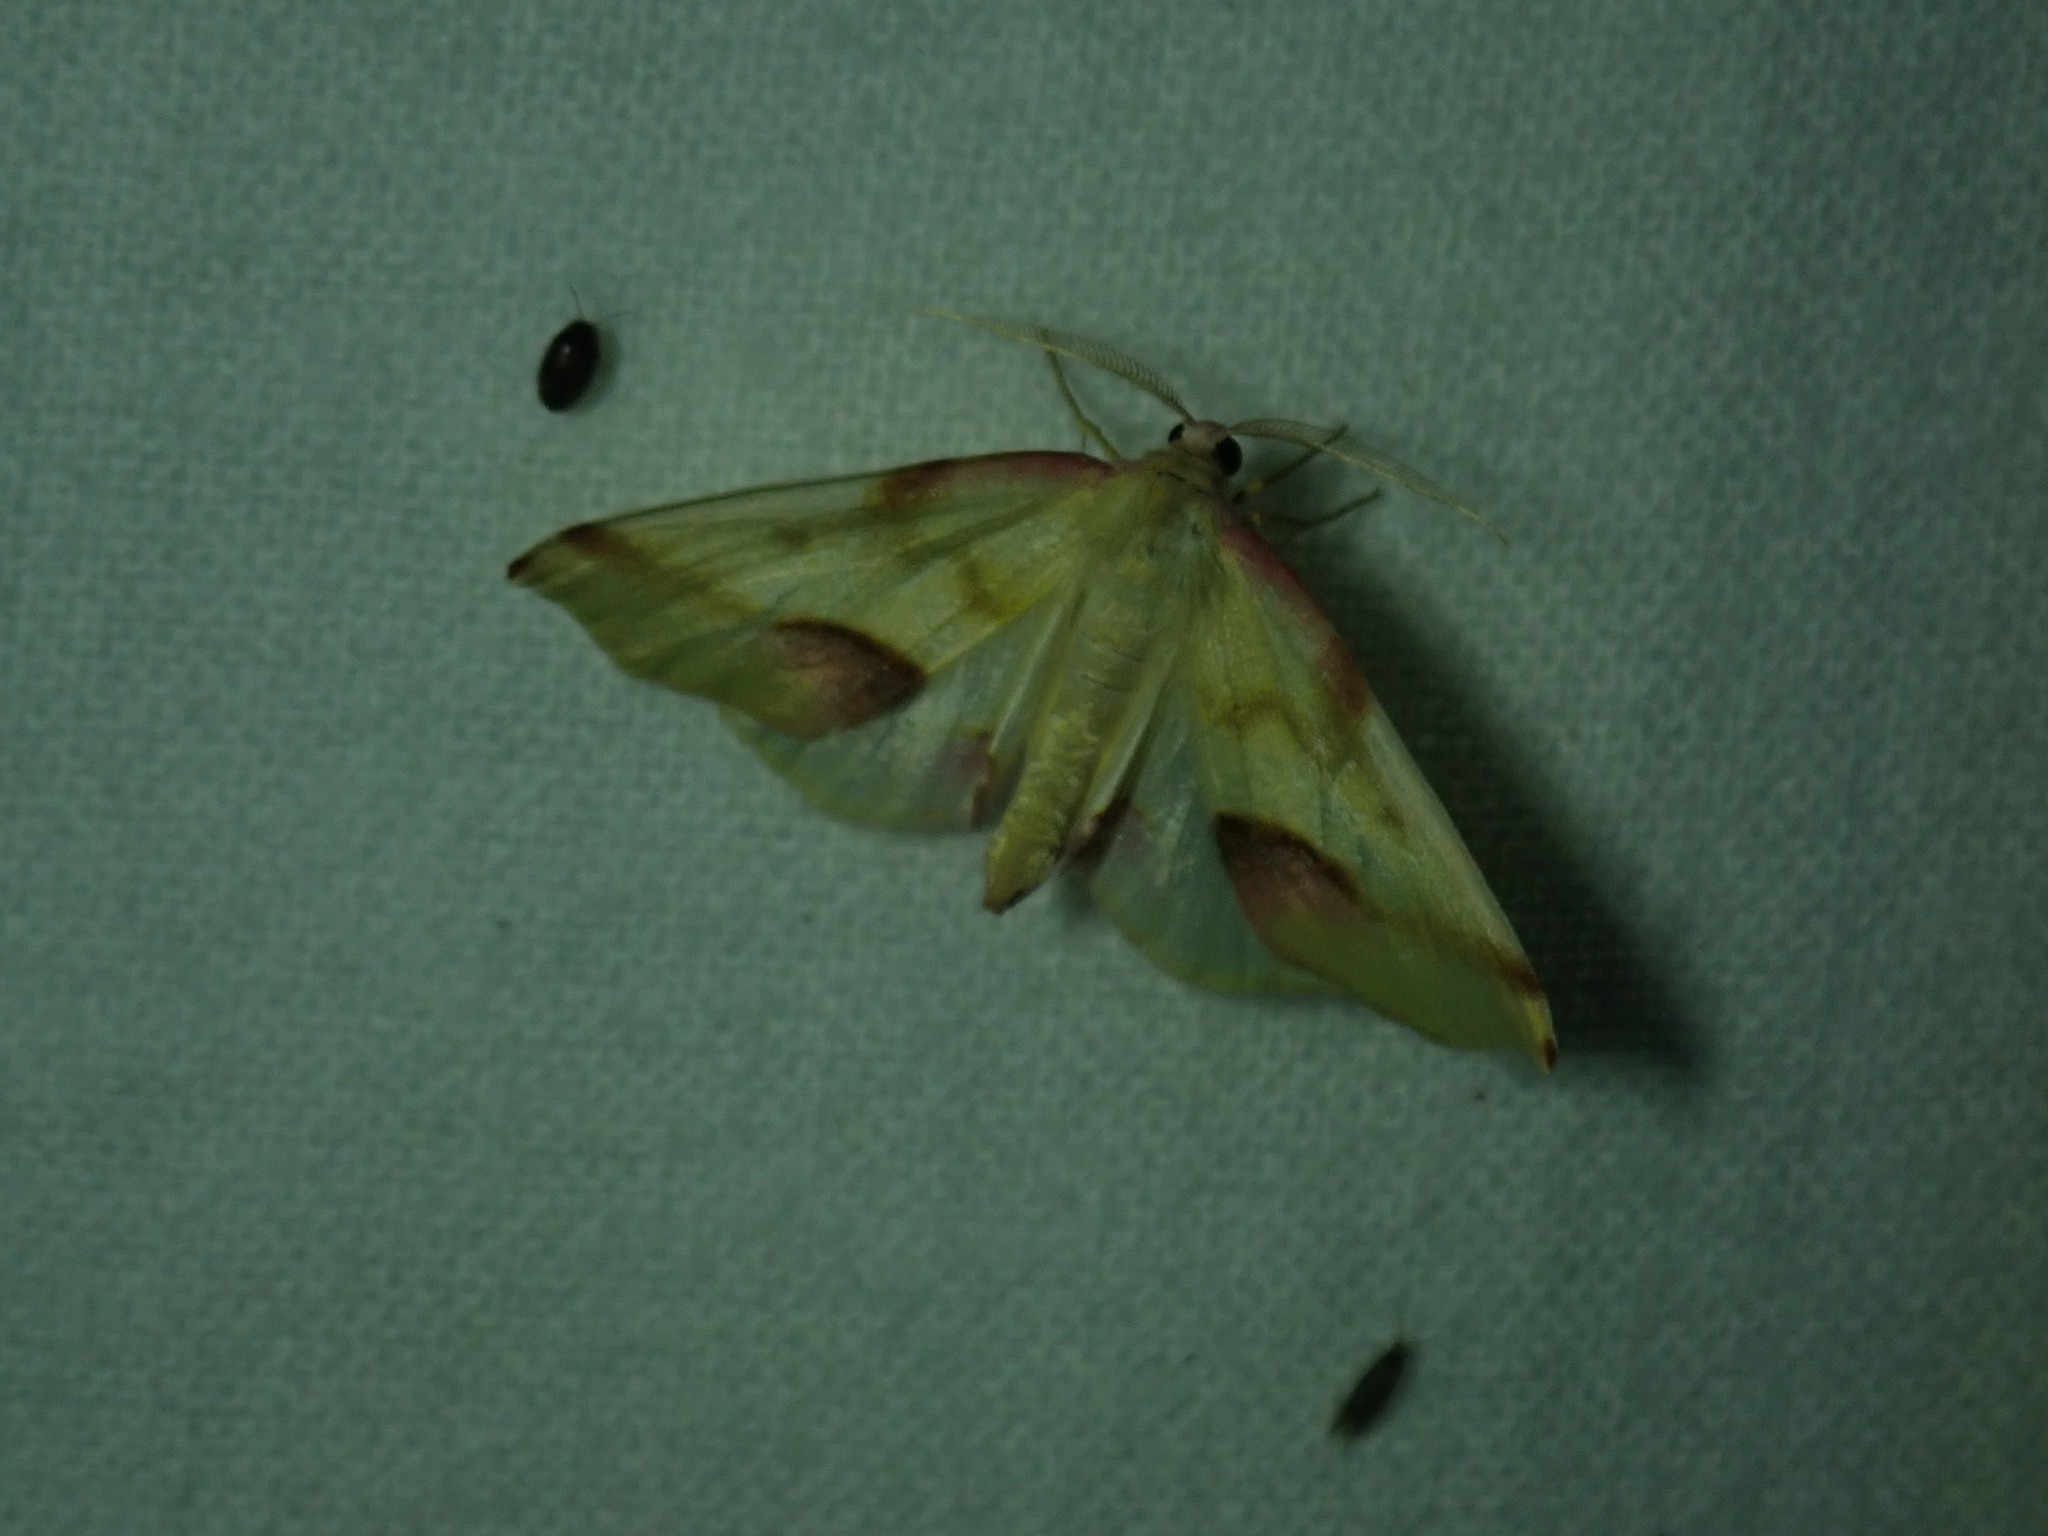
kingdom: Animalia
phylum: Arthropoda
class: Insecta
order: Lepidoptera
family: Geometridae
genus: Plagodis
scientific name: Plagodis serinaria
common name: Lemon plagodis
